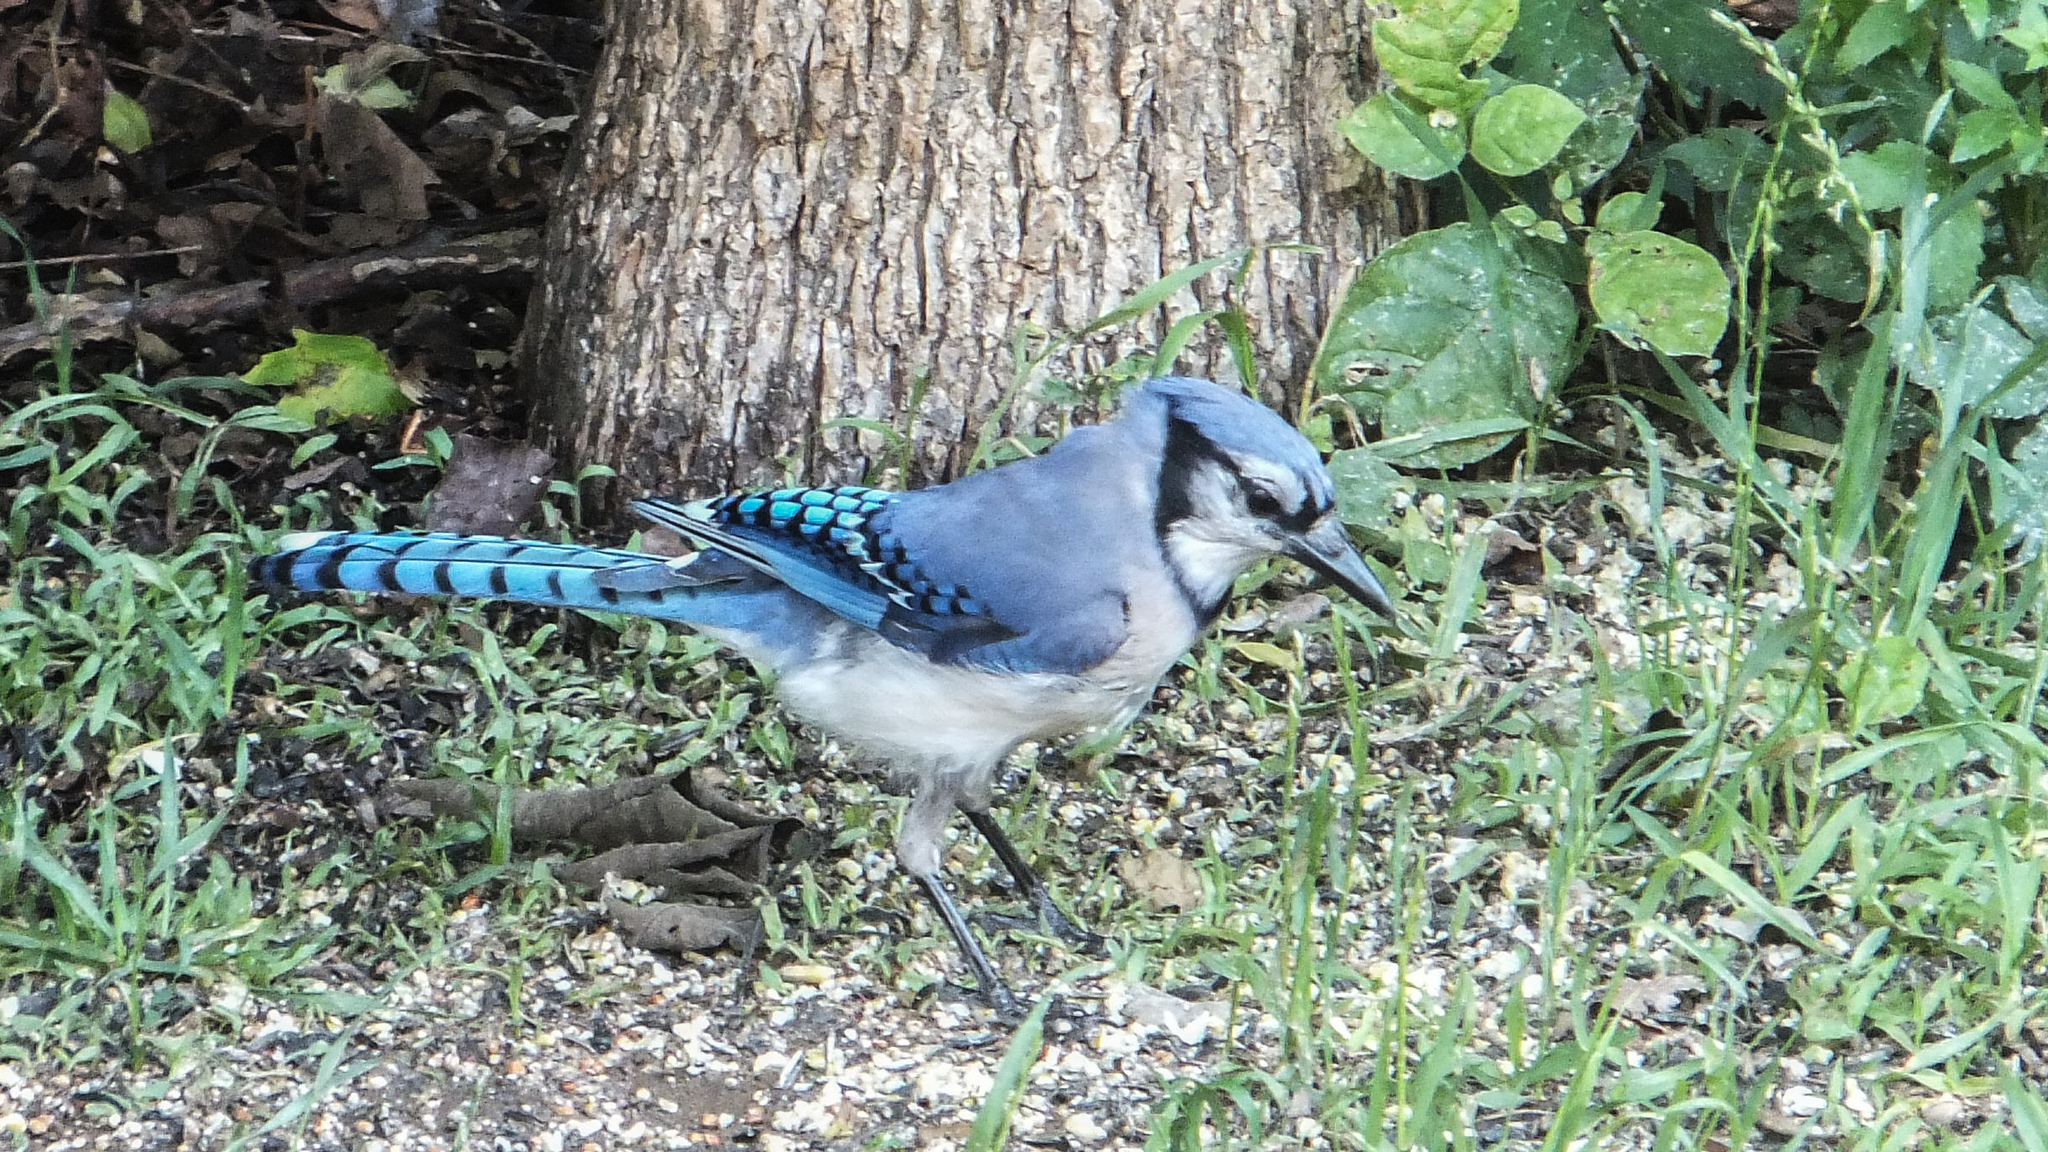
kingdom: Animalia
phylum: Chordata
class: Aves
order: Passeriformes
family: Corvidae
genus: Cyanocitta
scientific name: Cyanocitta cristata
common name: Blue jay
